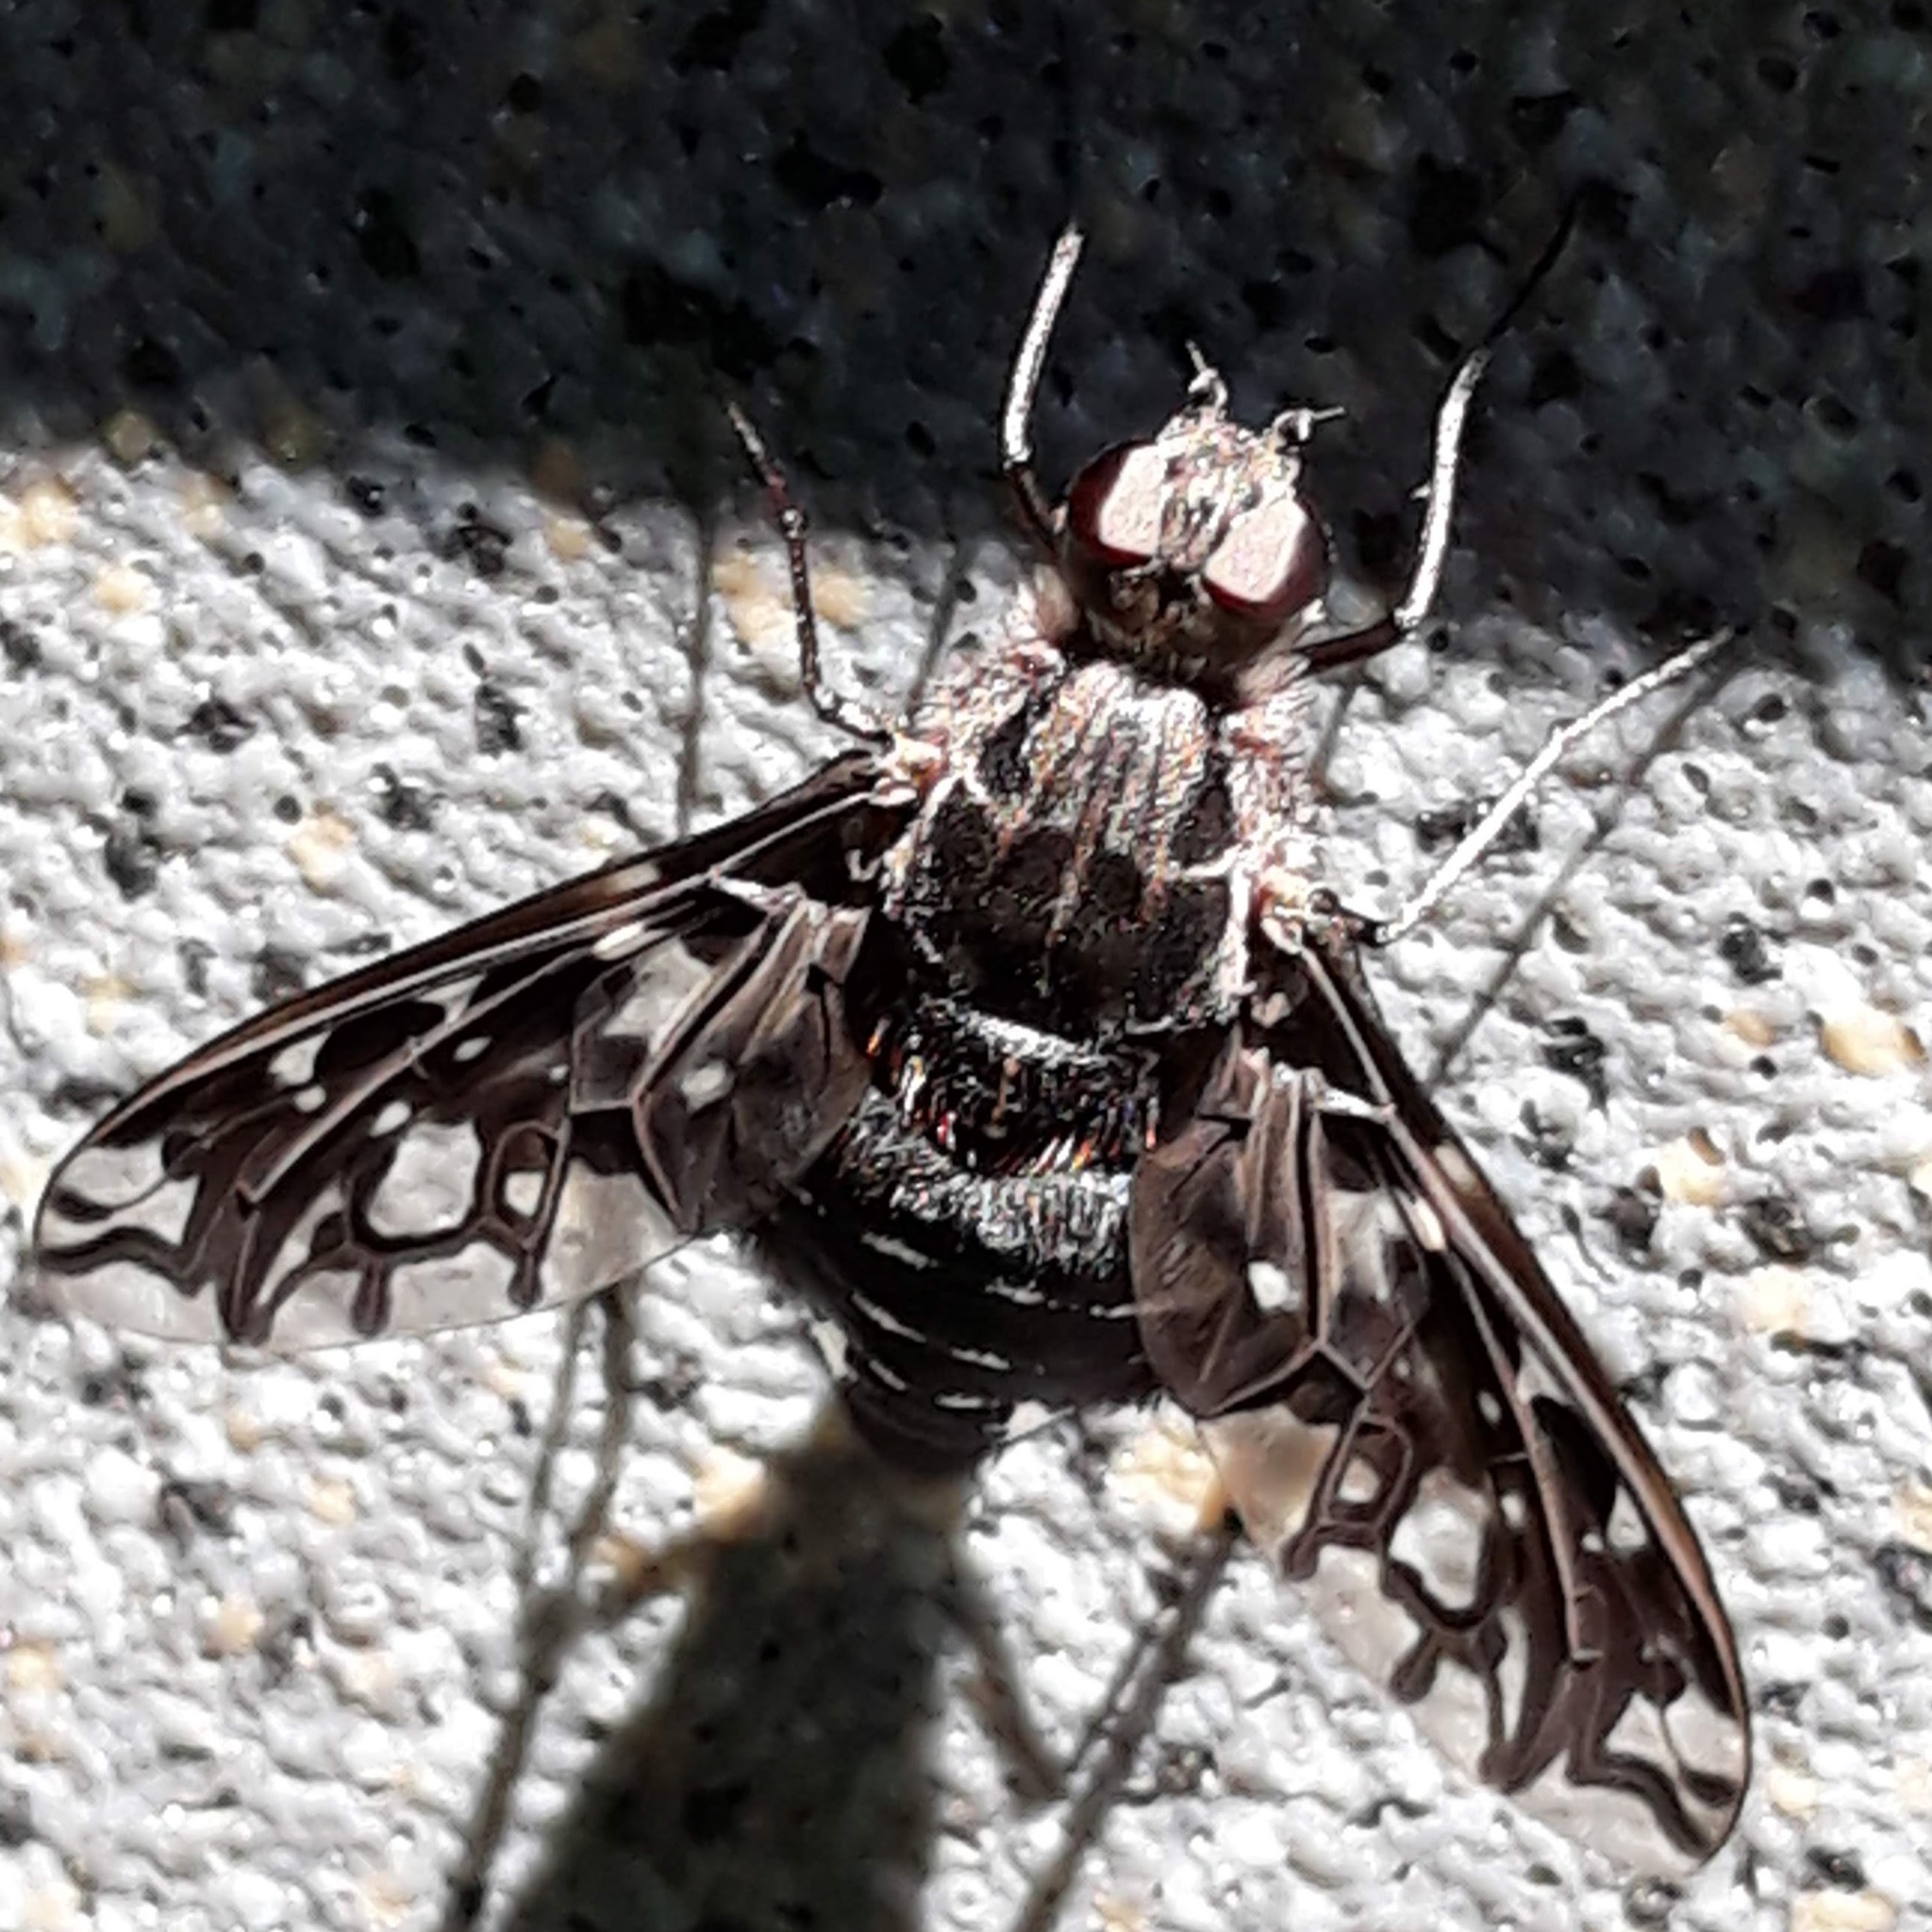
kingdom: Animalia
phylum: Arthropoda
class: Insecta
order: Diptera
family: Bombyliidae
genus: Xenox
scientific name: Xenox tigrinus
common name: Tiger bee fly
